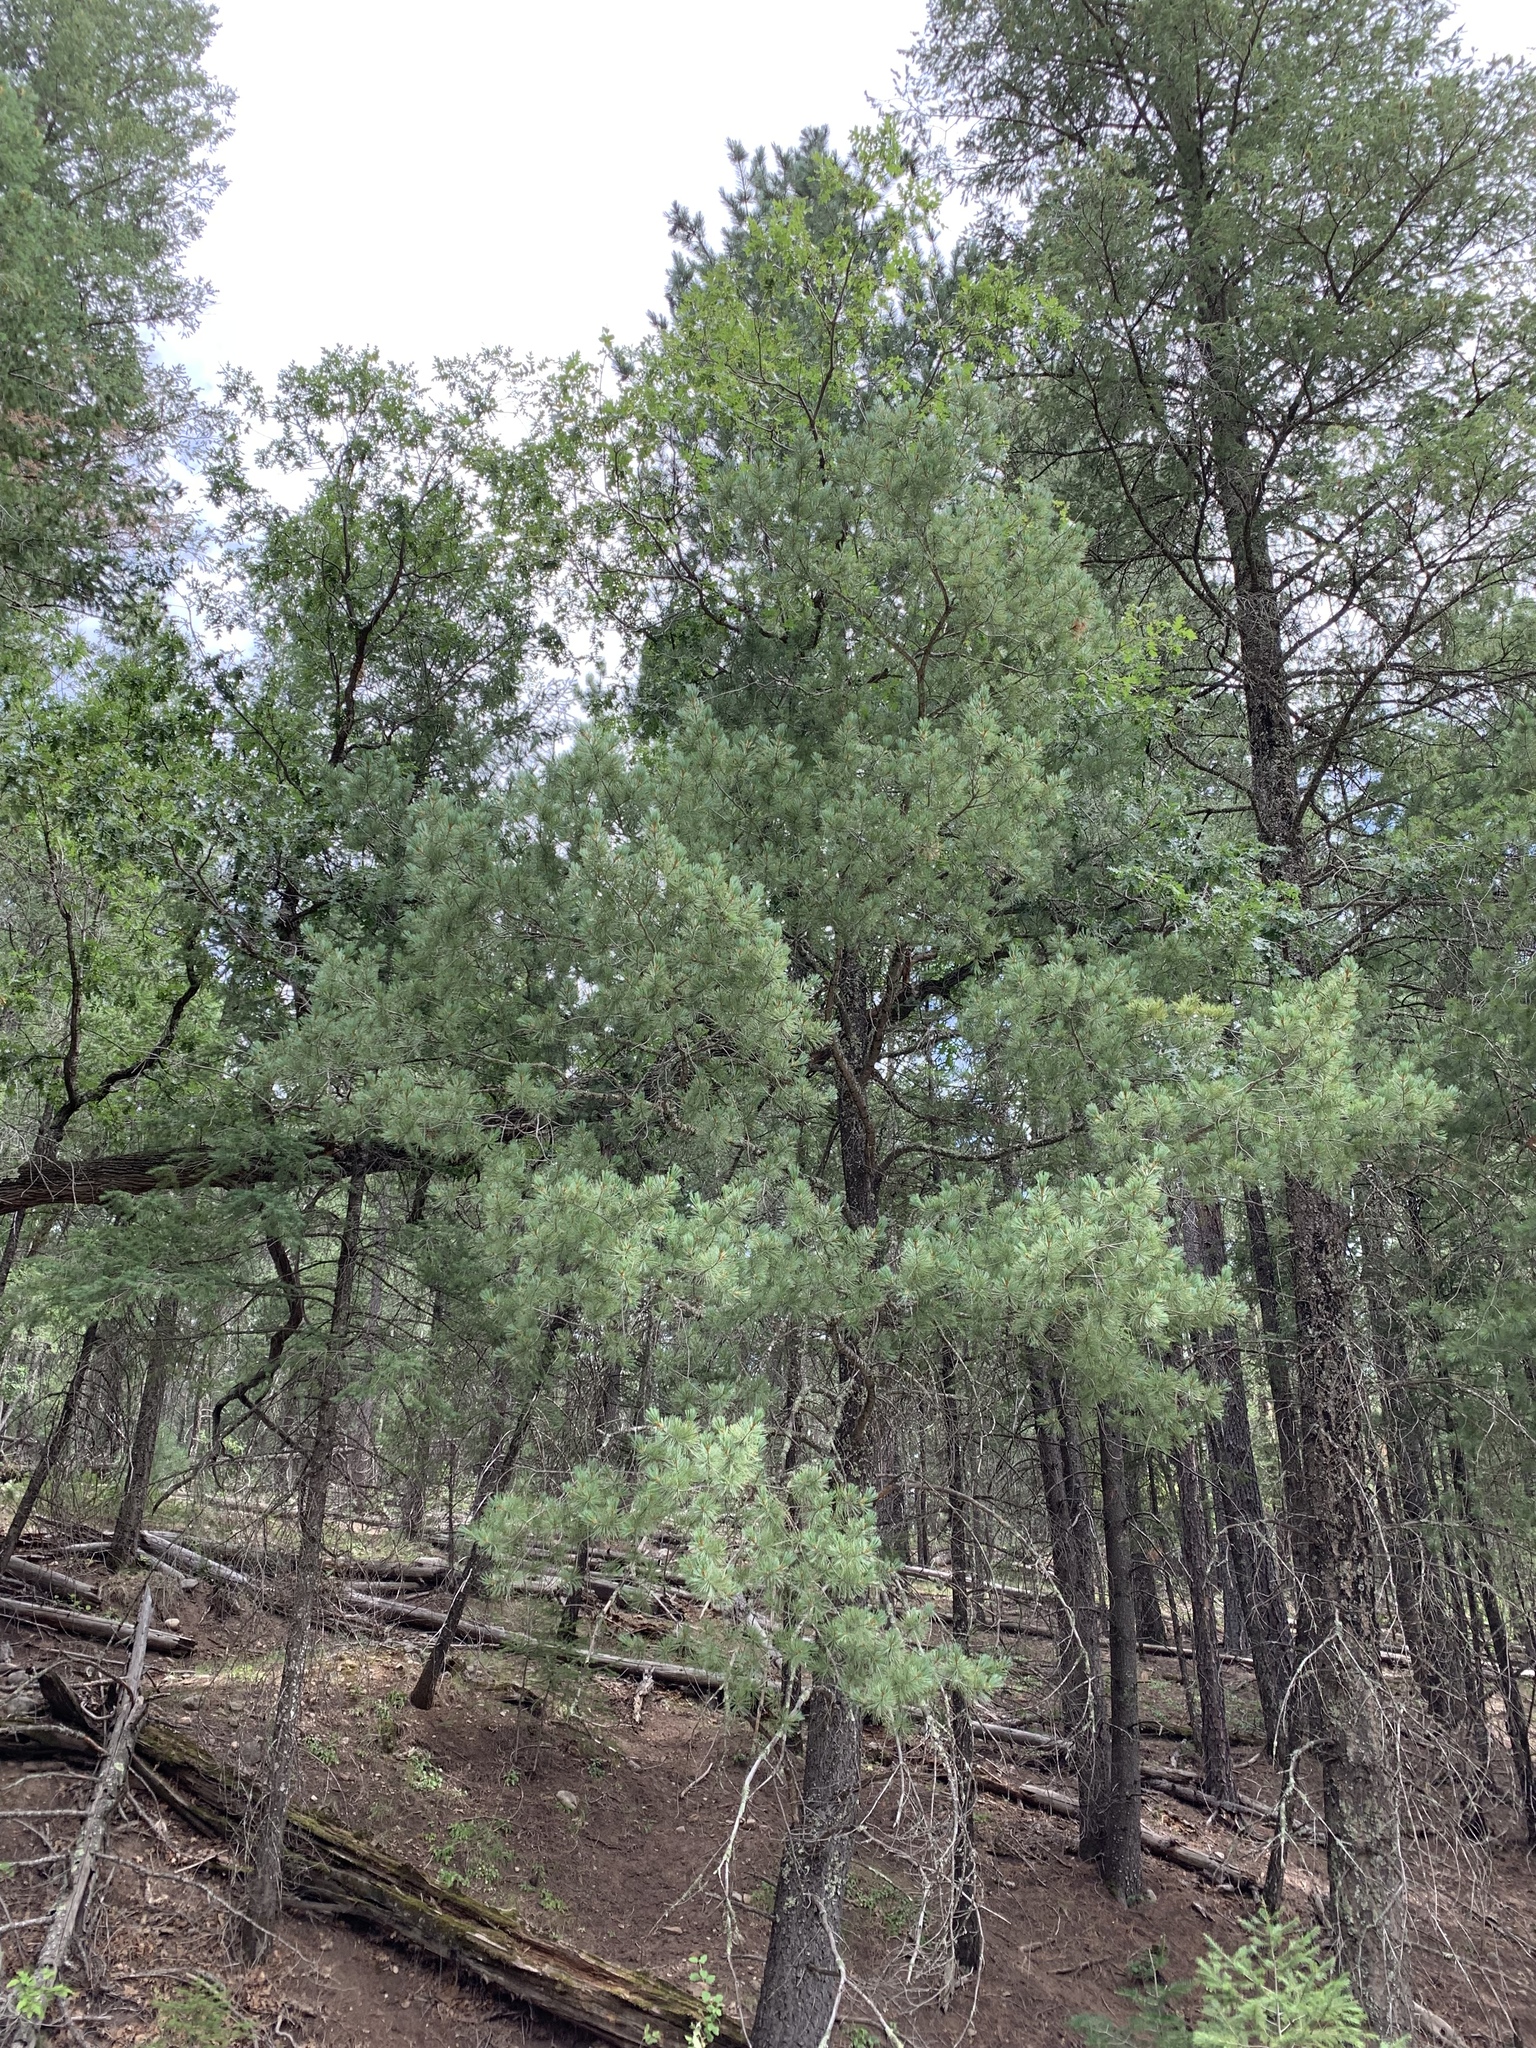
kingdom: Plantae
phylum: Tracheophyta
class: Pinopsida
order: Pinales
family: Pinaceae
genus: Pinus
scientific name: Pinus strobiformis
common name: Southwestern white pine
